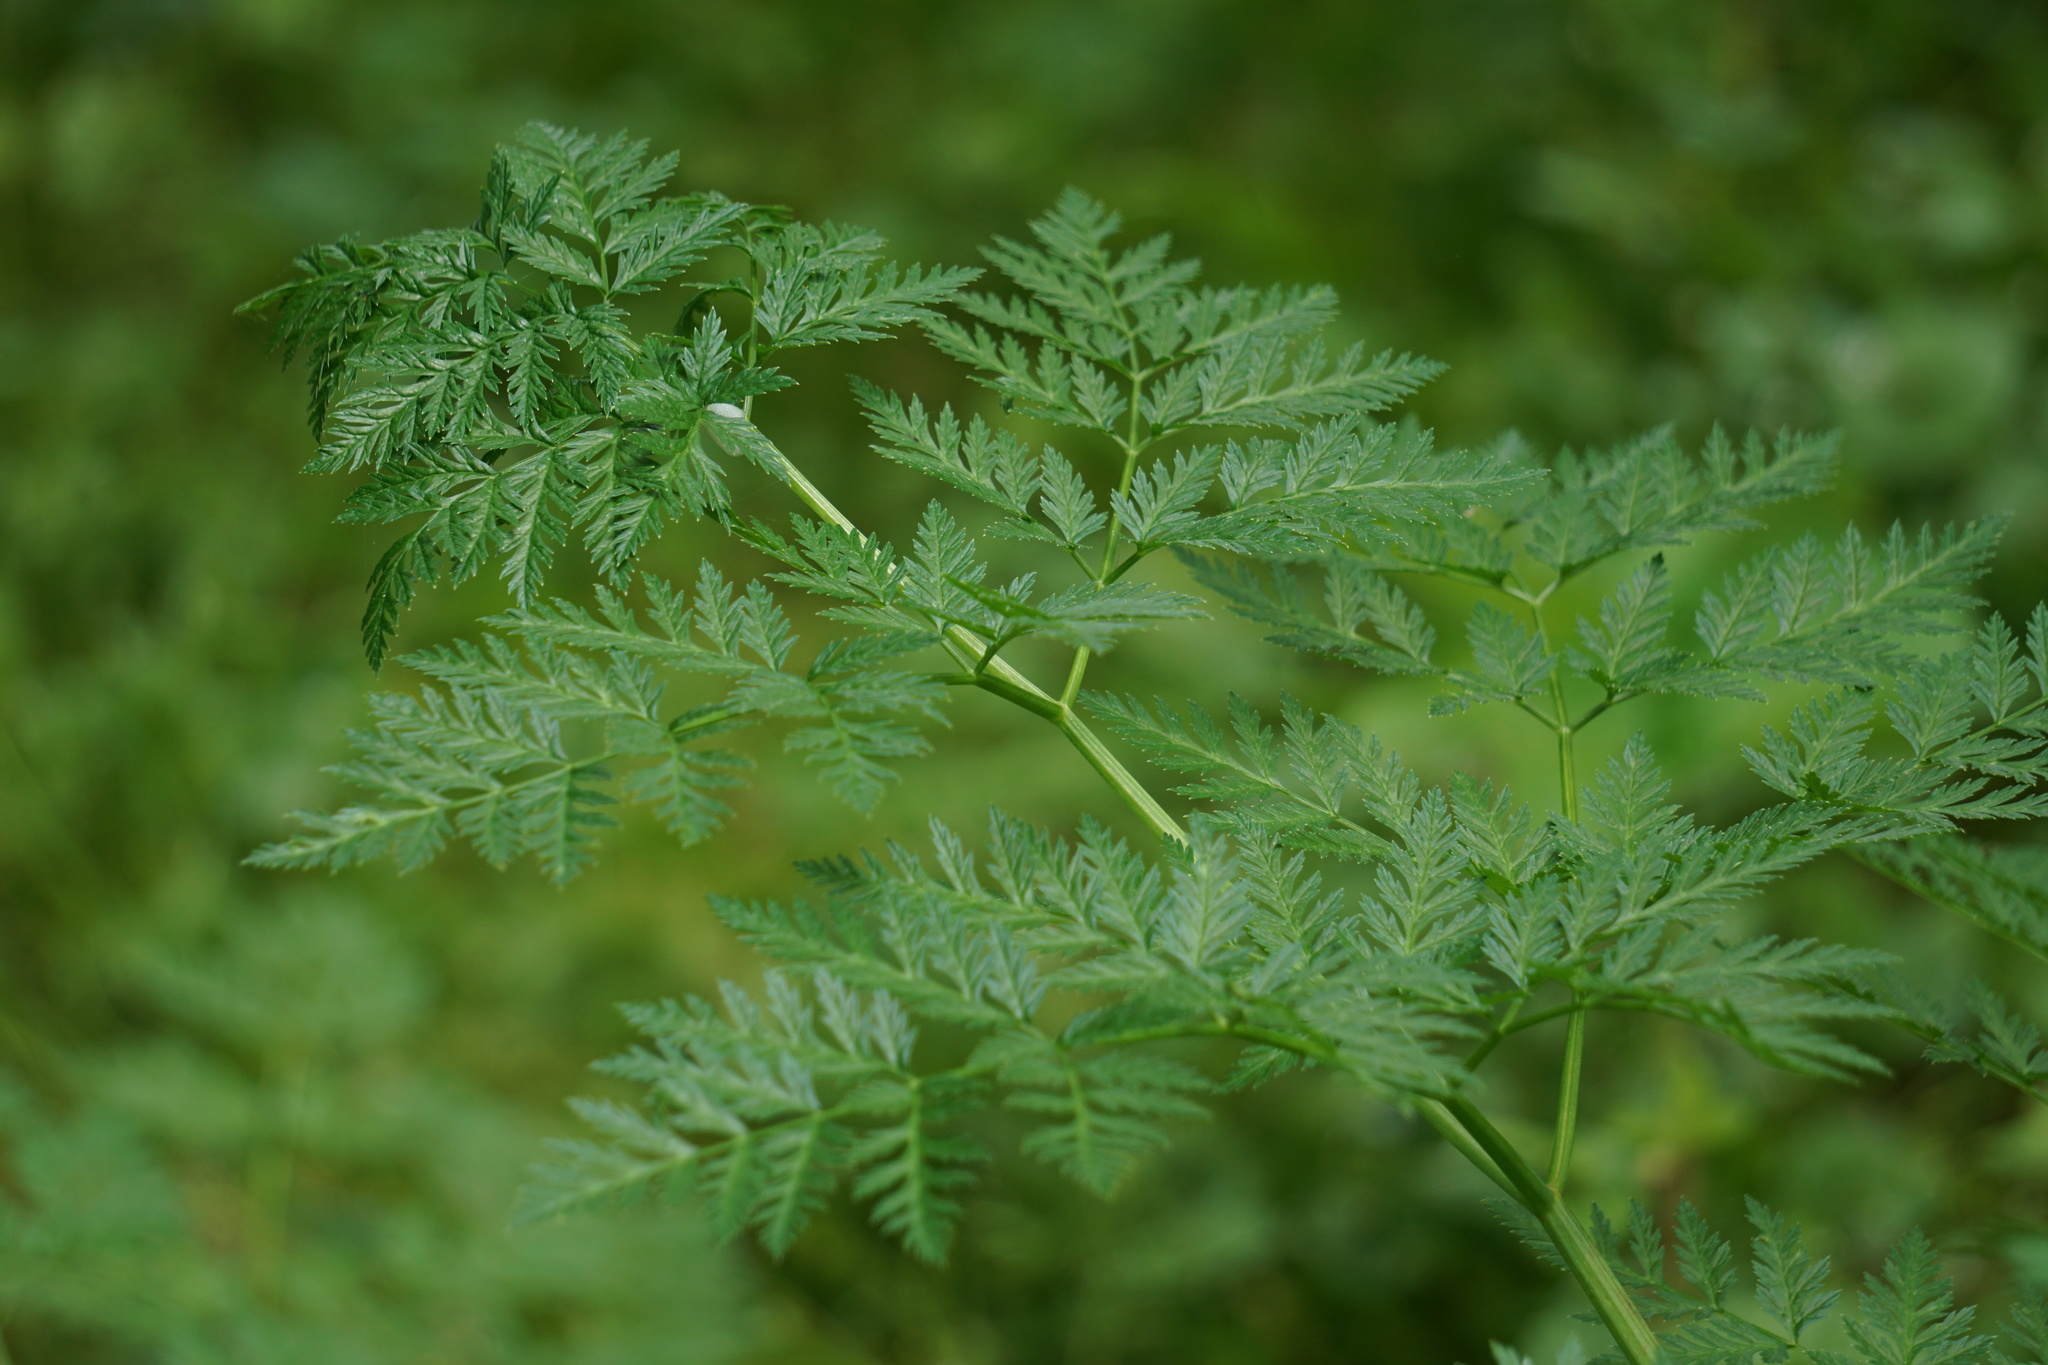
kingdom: Plantae
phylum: Tracheophyta
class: Magnoliopsida
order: Apiales
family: Apiaceae
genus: Conium
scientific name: Conium maculatum
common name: Hemlock
